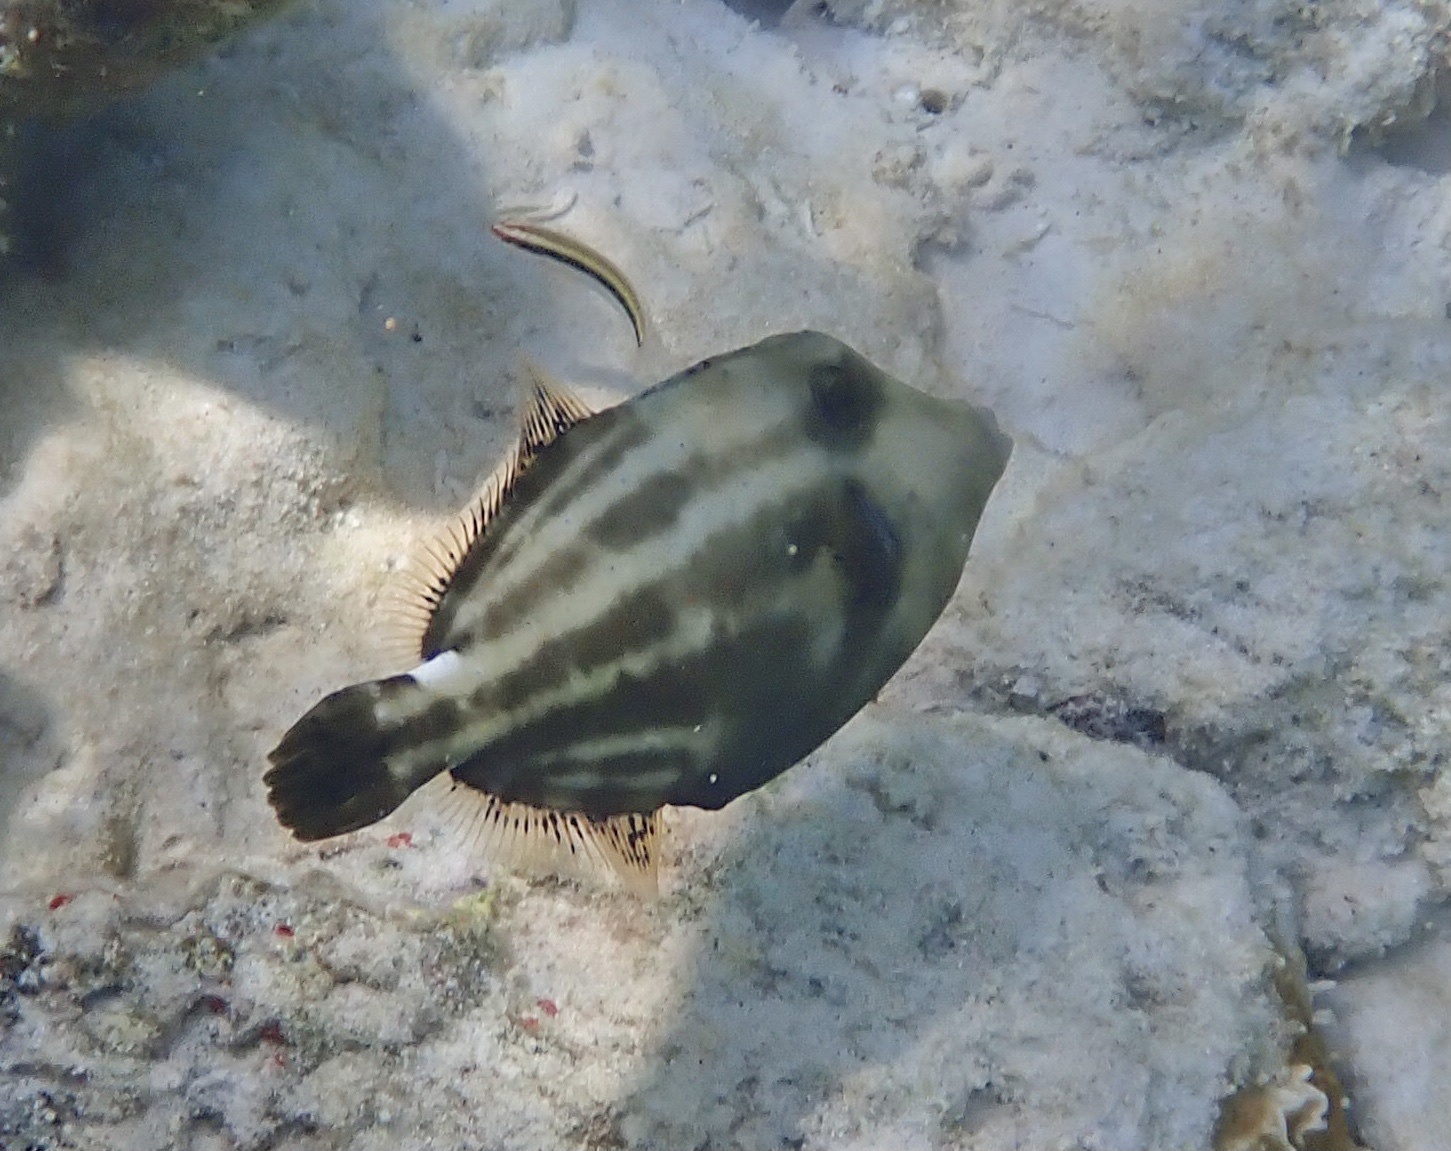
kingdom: Animalia
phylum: Chordata
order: Tetraodontiformes
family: Monacanthidae
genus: Cantherhines
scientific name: Cantherhines pullus
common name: Orangespotted filefish
